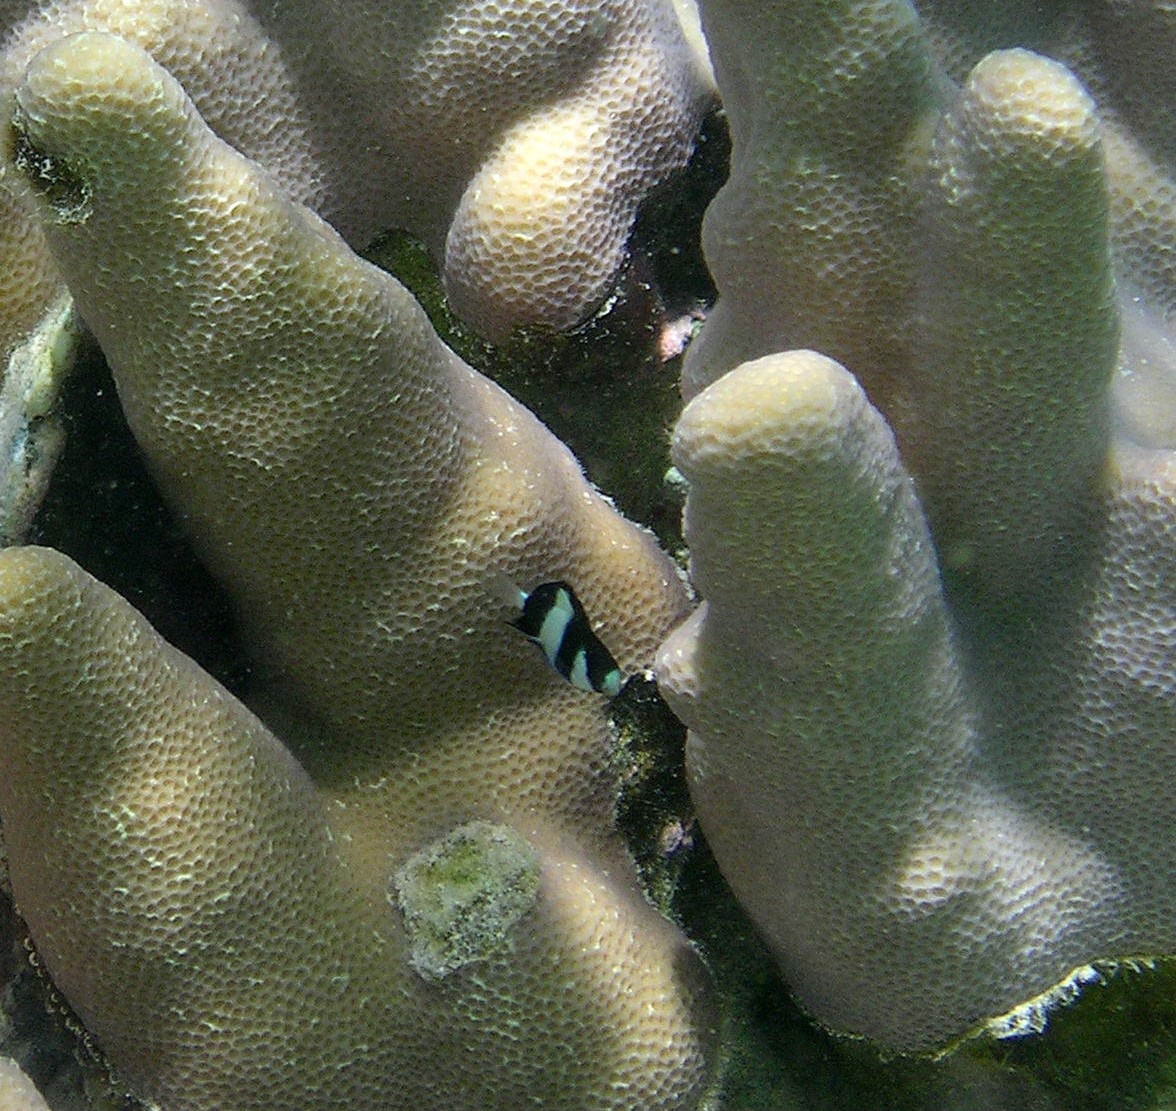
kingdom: Animalia
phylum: Chordata
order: Perciformes
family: Pomacentridae
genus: Dascyllus
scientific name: Dascyllus aruanus
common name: Humbug dascyllus
